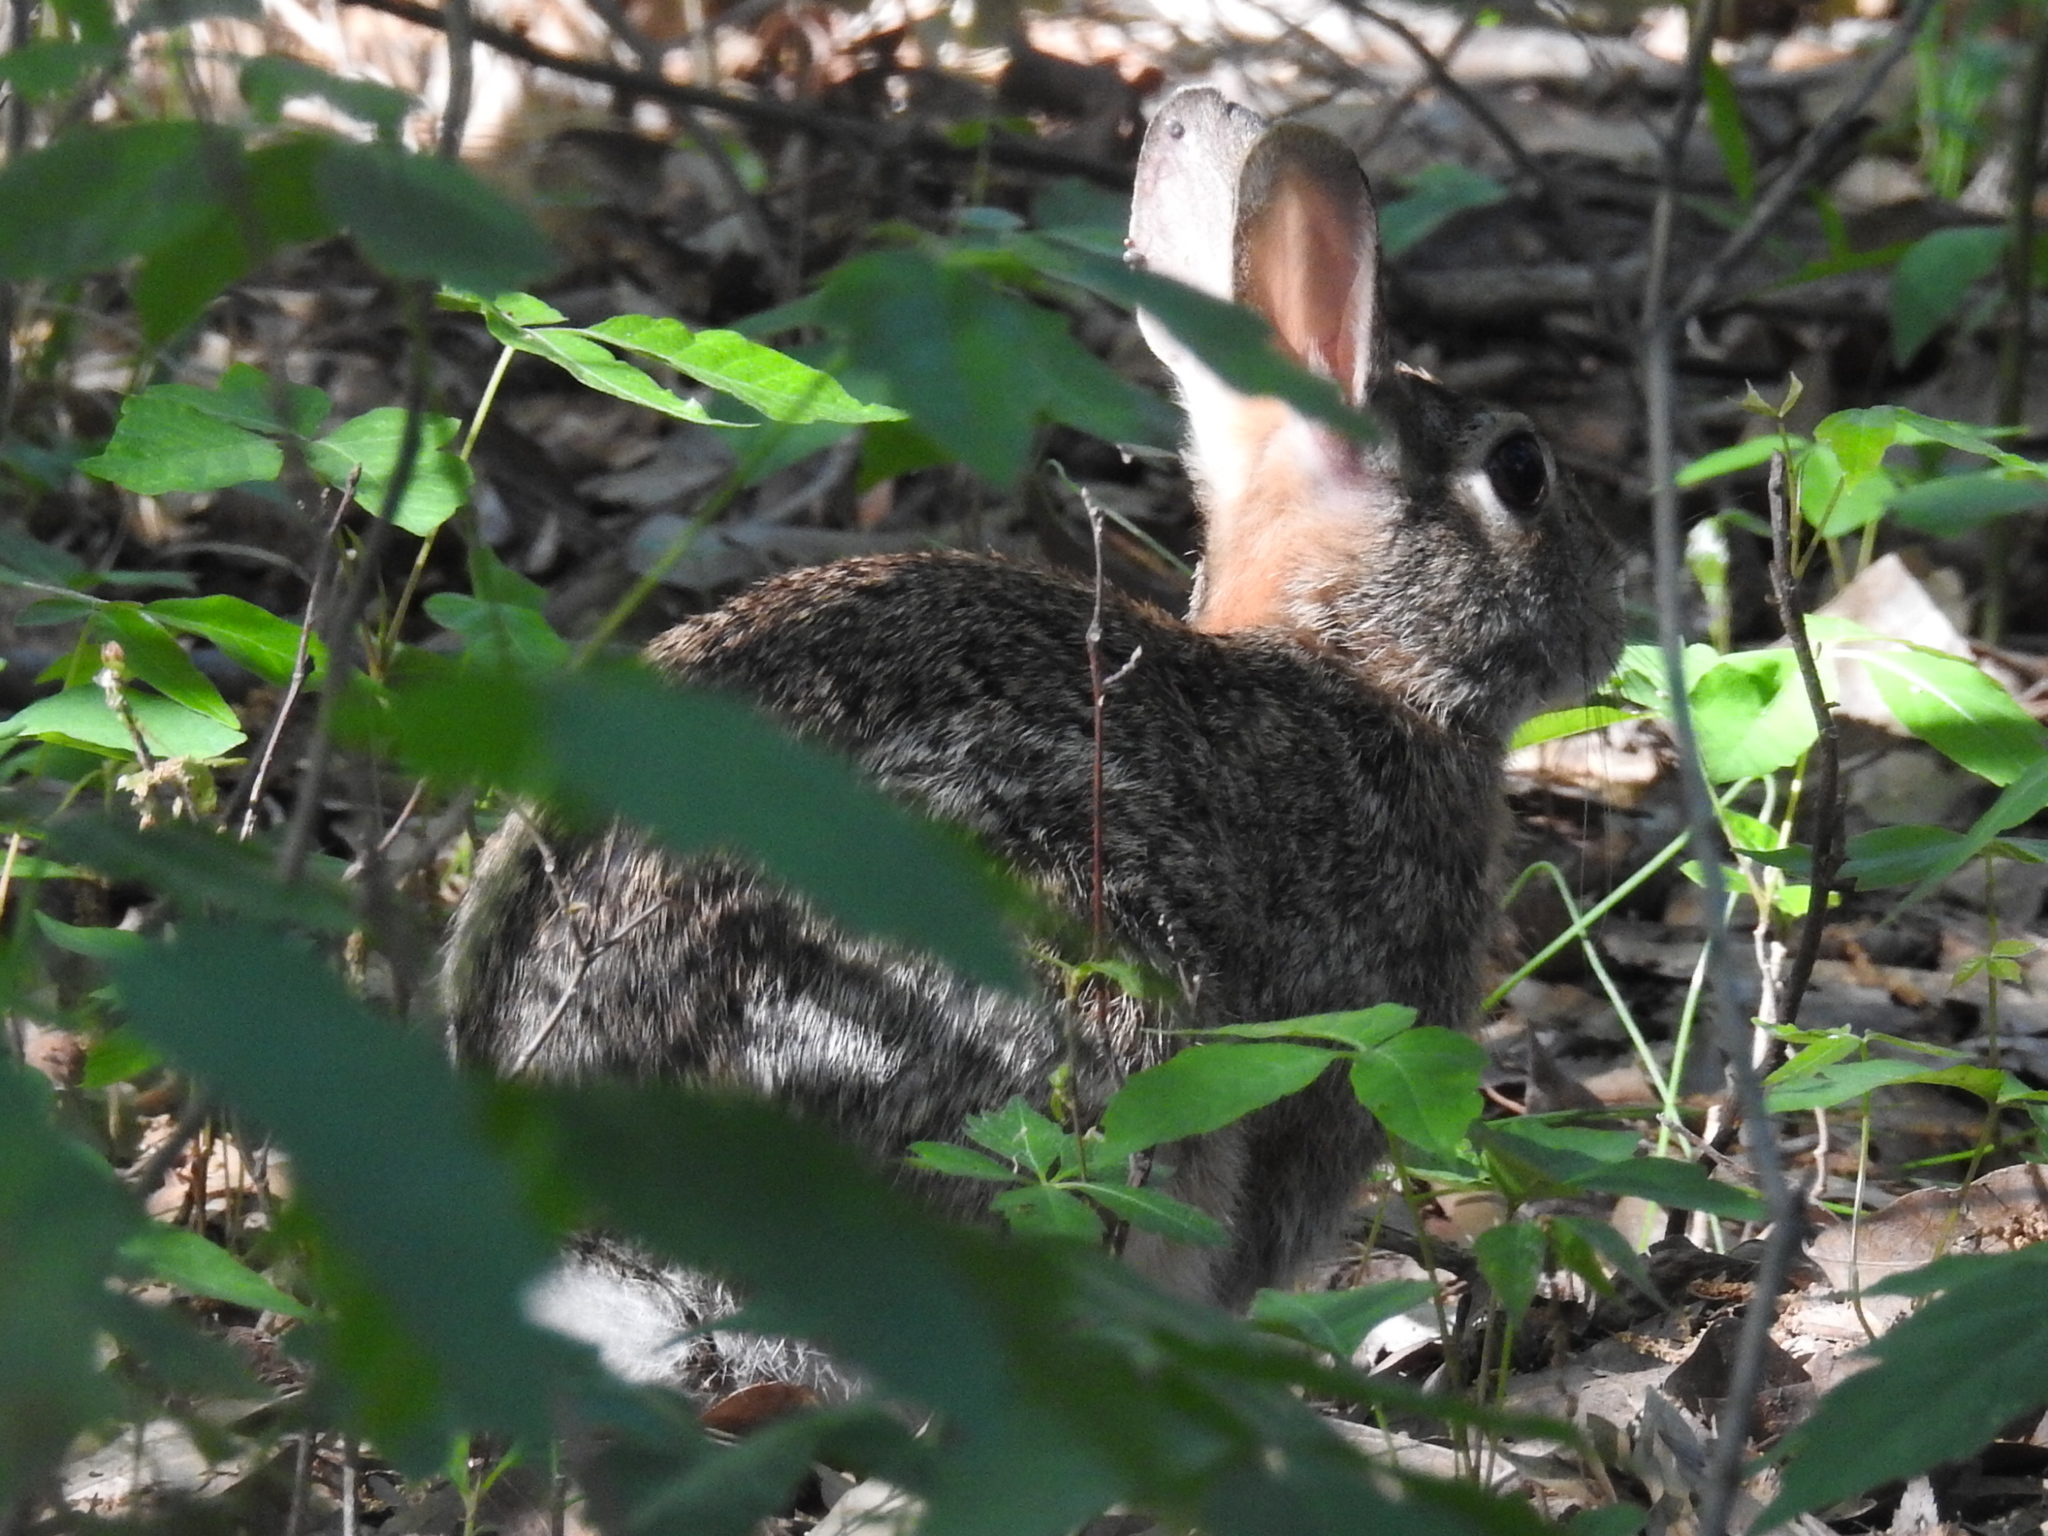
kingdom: Animalia
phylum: Chordata
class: Mammalia
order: Lagomorpha
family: Leporidae
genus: Sylvilagus
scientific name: Sylvilagus floridanus
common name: Eastern cottontail
